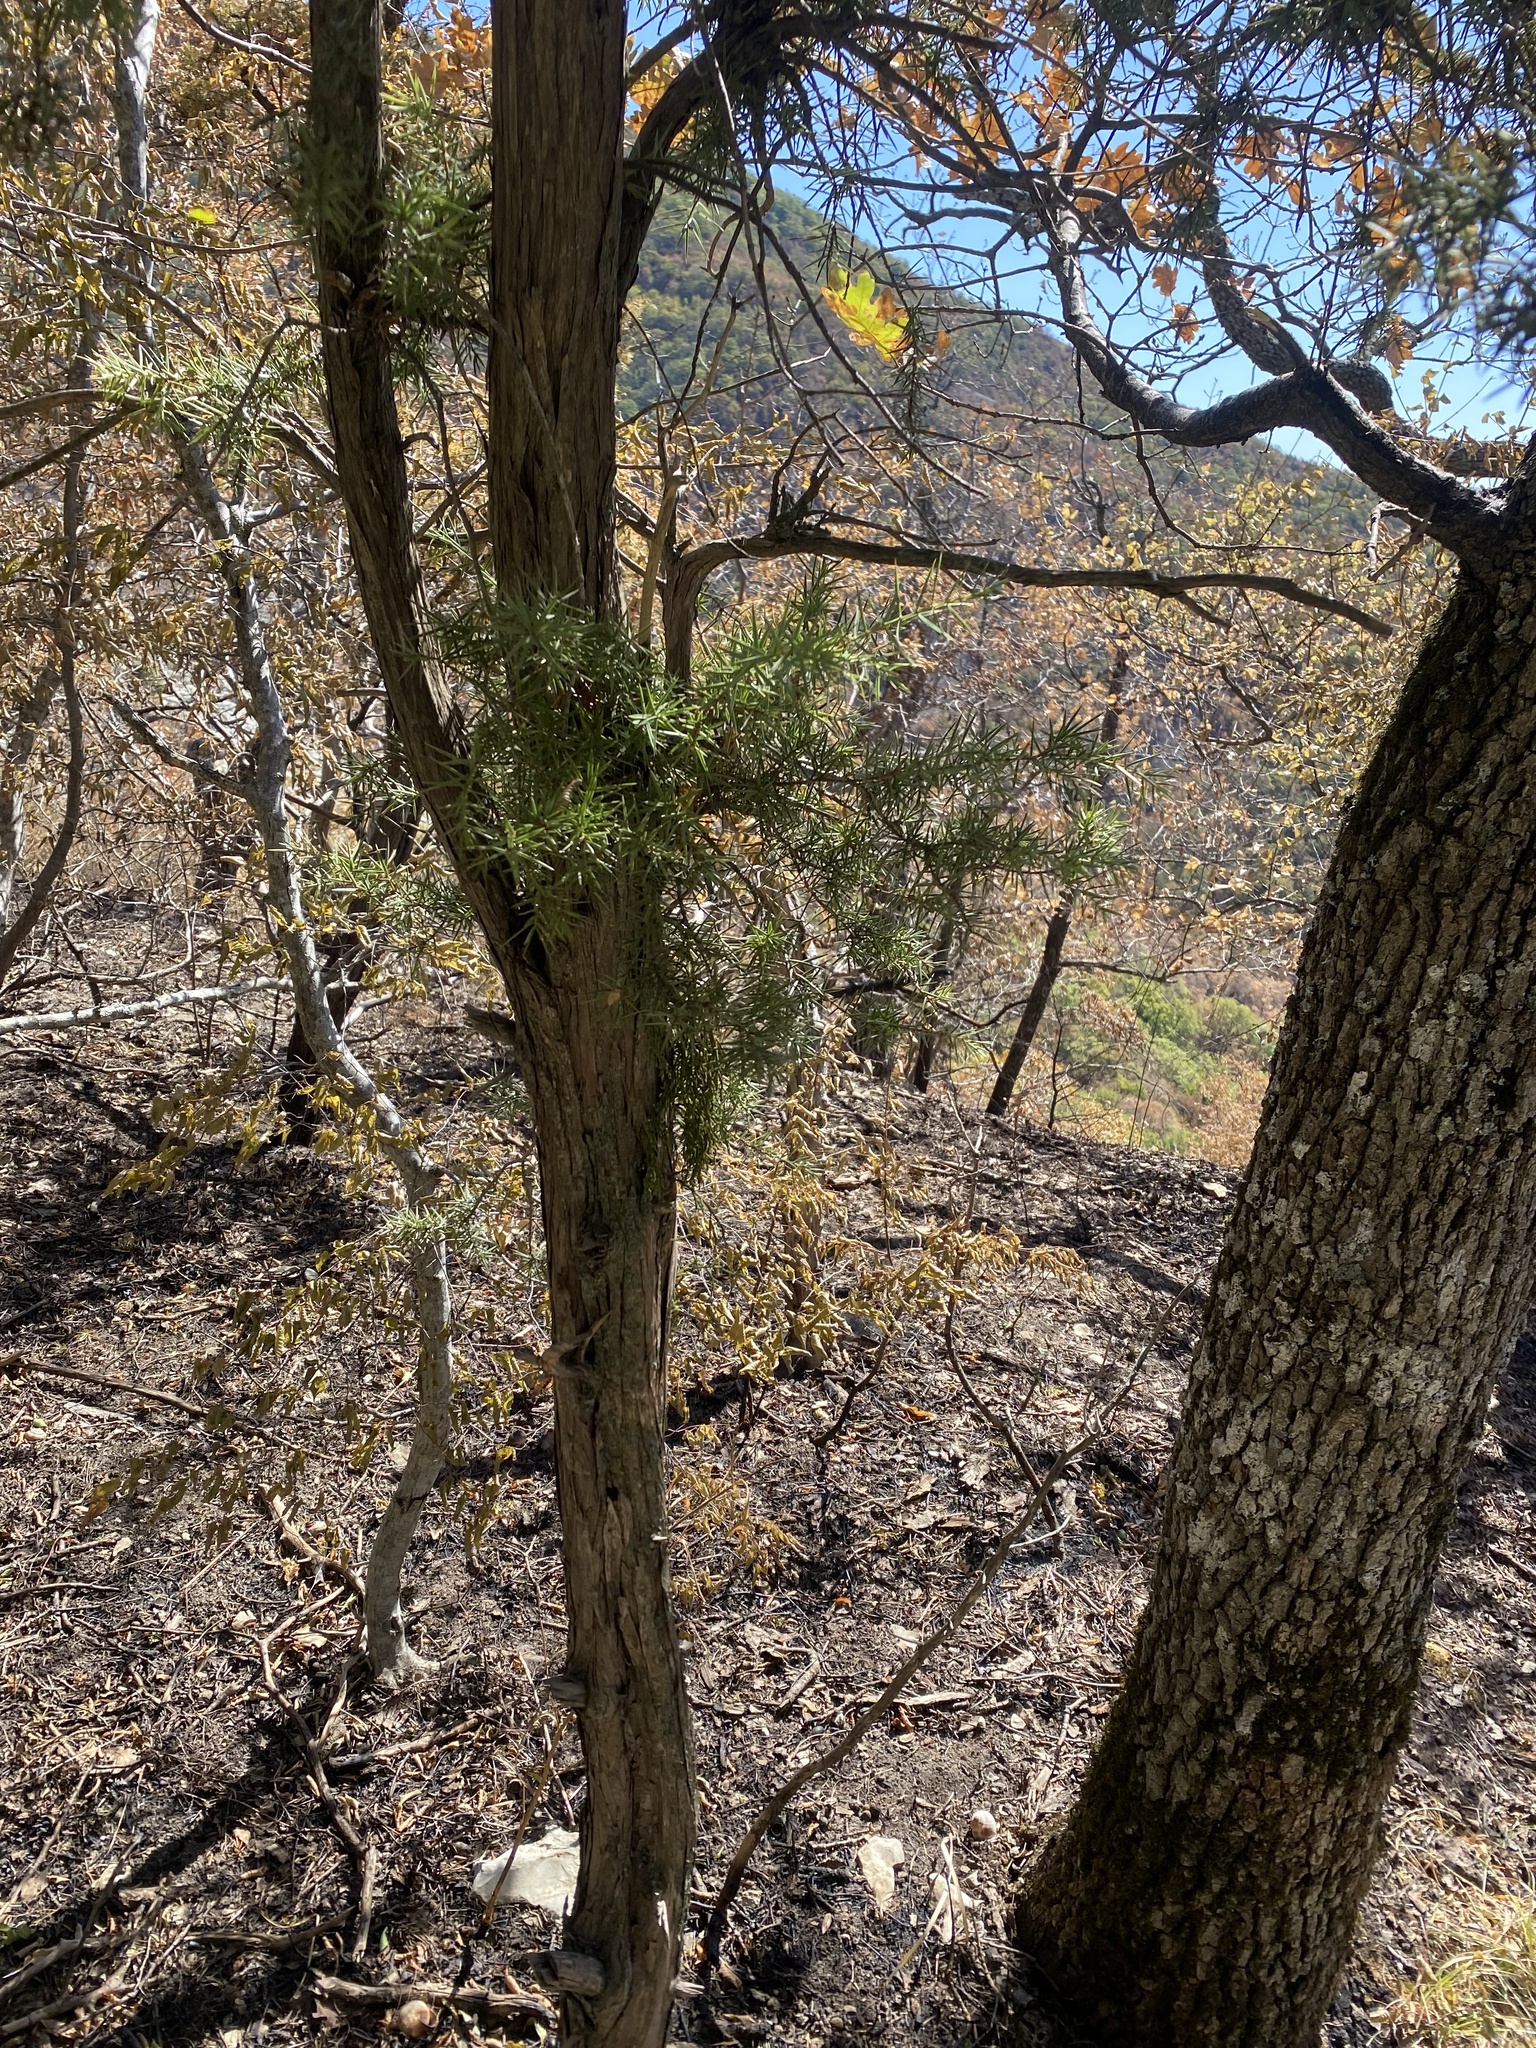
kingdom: Plantae
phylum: Tracheophyta
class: Pinopsida
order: Pinales
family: Cupressaceae
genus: Juniperus
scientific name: Juniperus oxycedrus
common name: Prickly juniper
